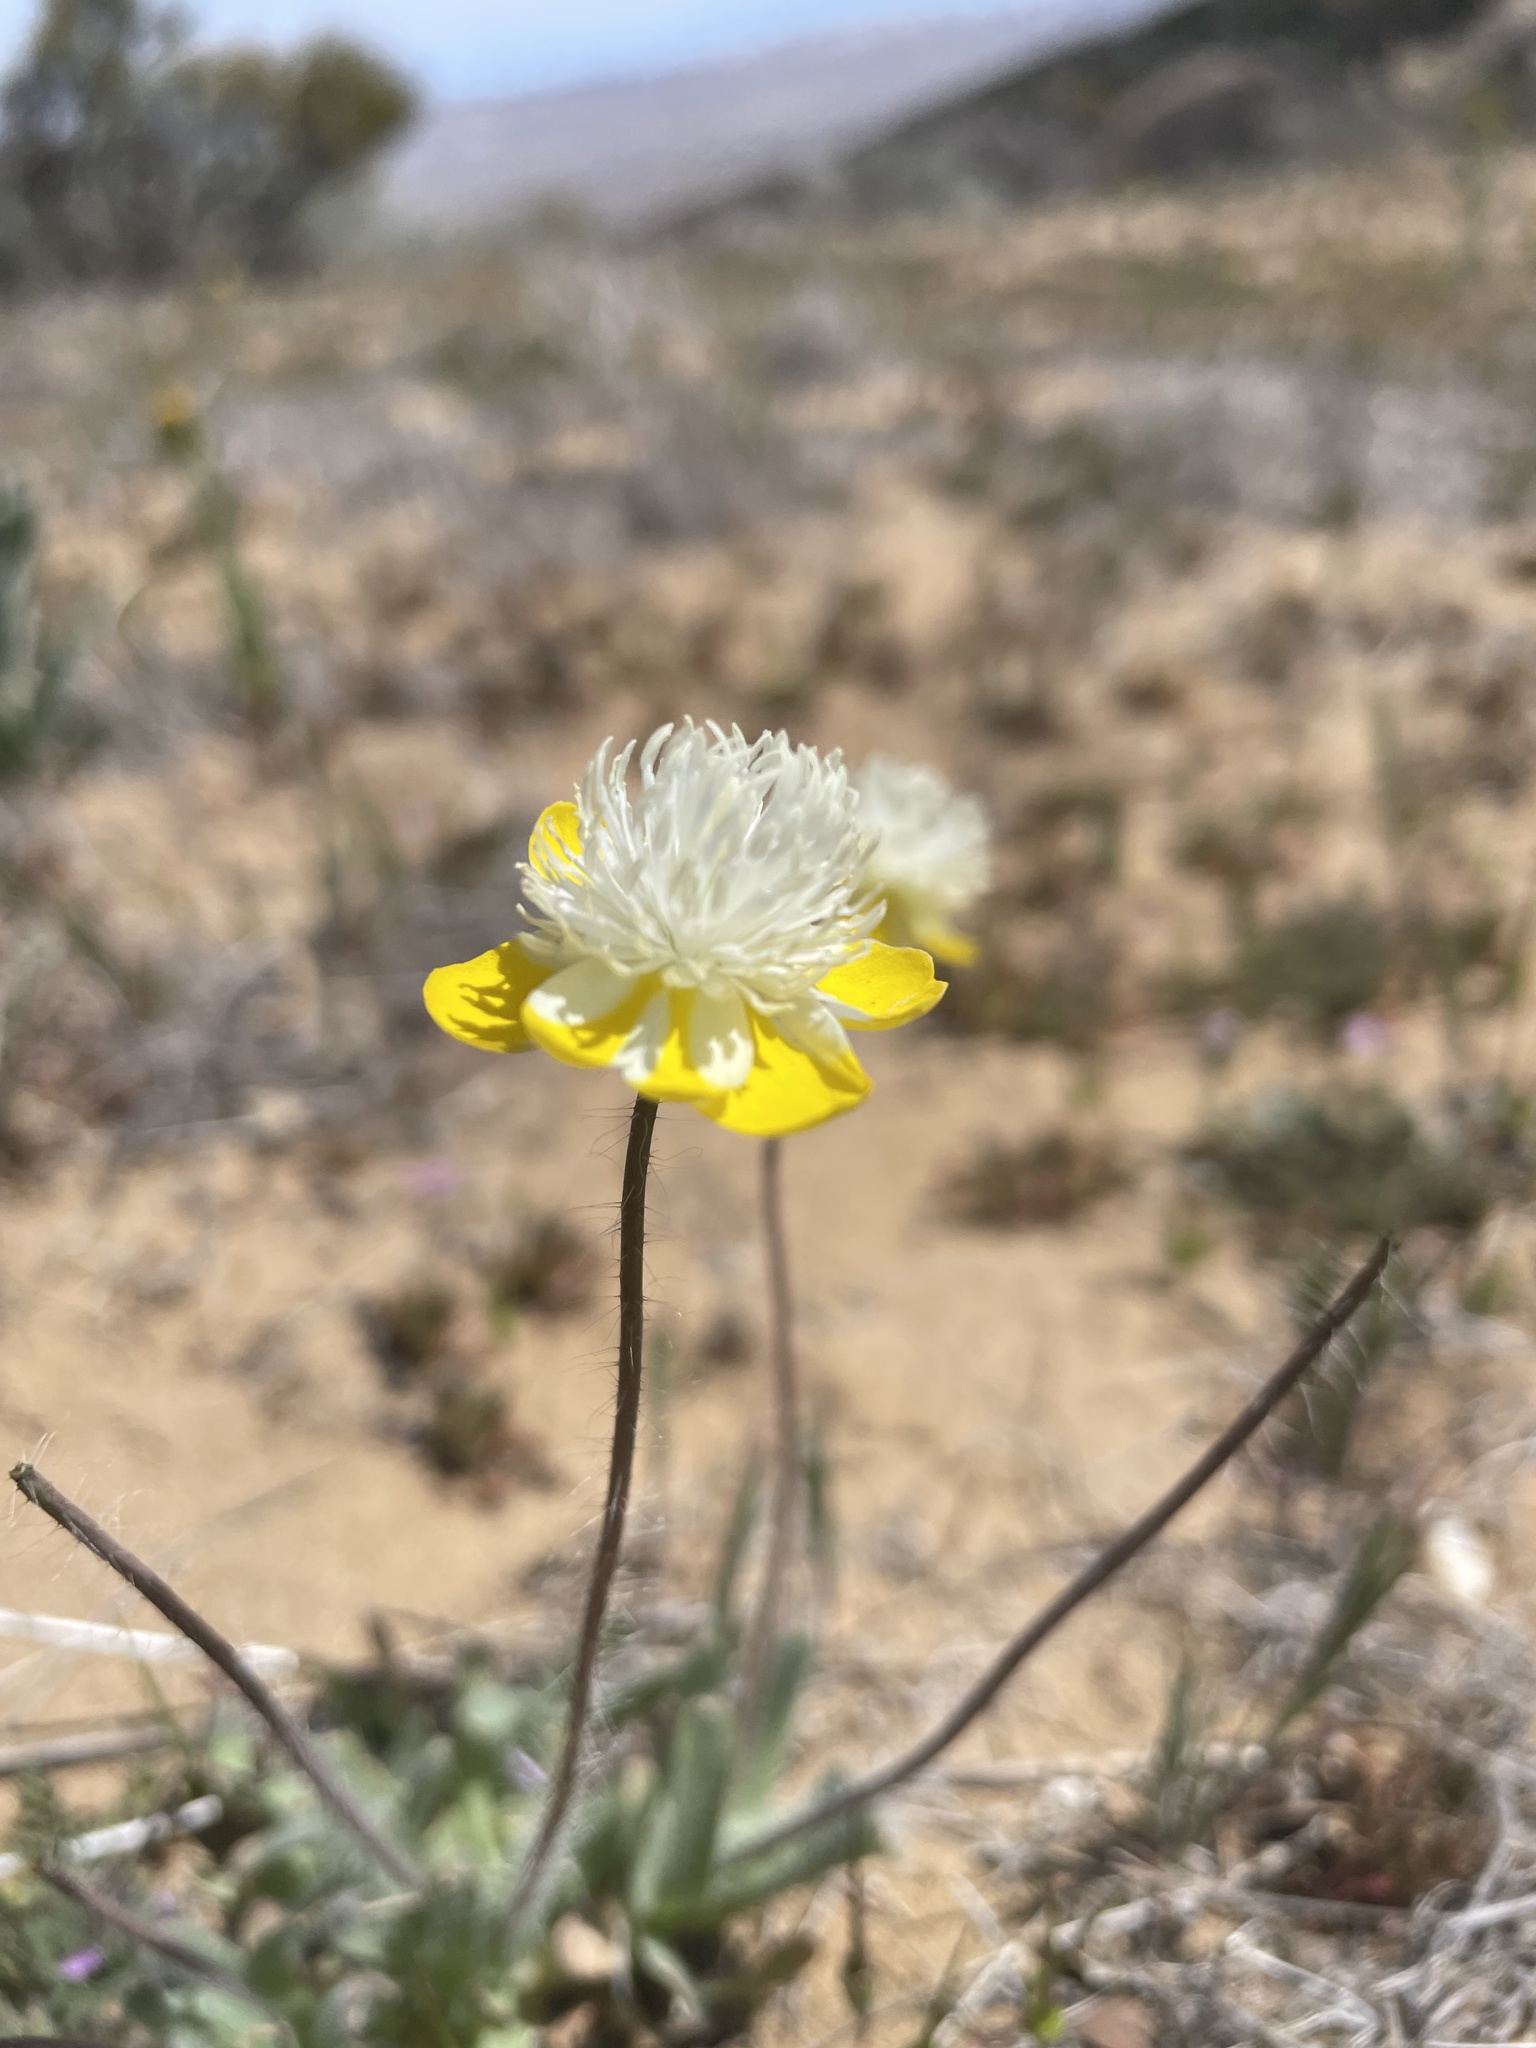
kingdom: Plantae
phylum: Tracheophyta
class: Magnoliopsida
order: Ranunculales
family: Papaveraceae
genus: Platystemon
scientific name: Platystemon californicus
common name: Cream-cups
